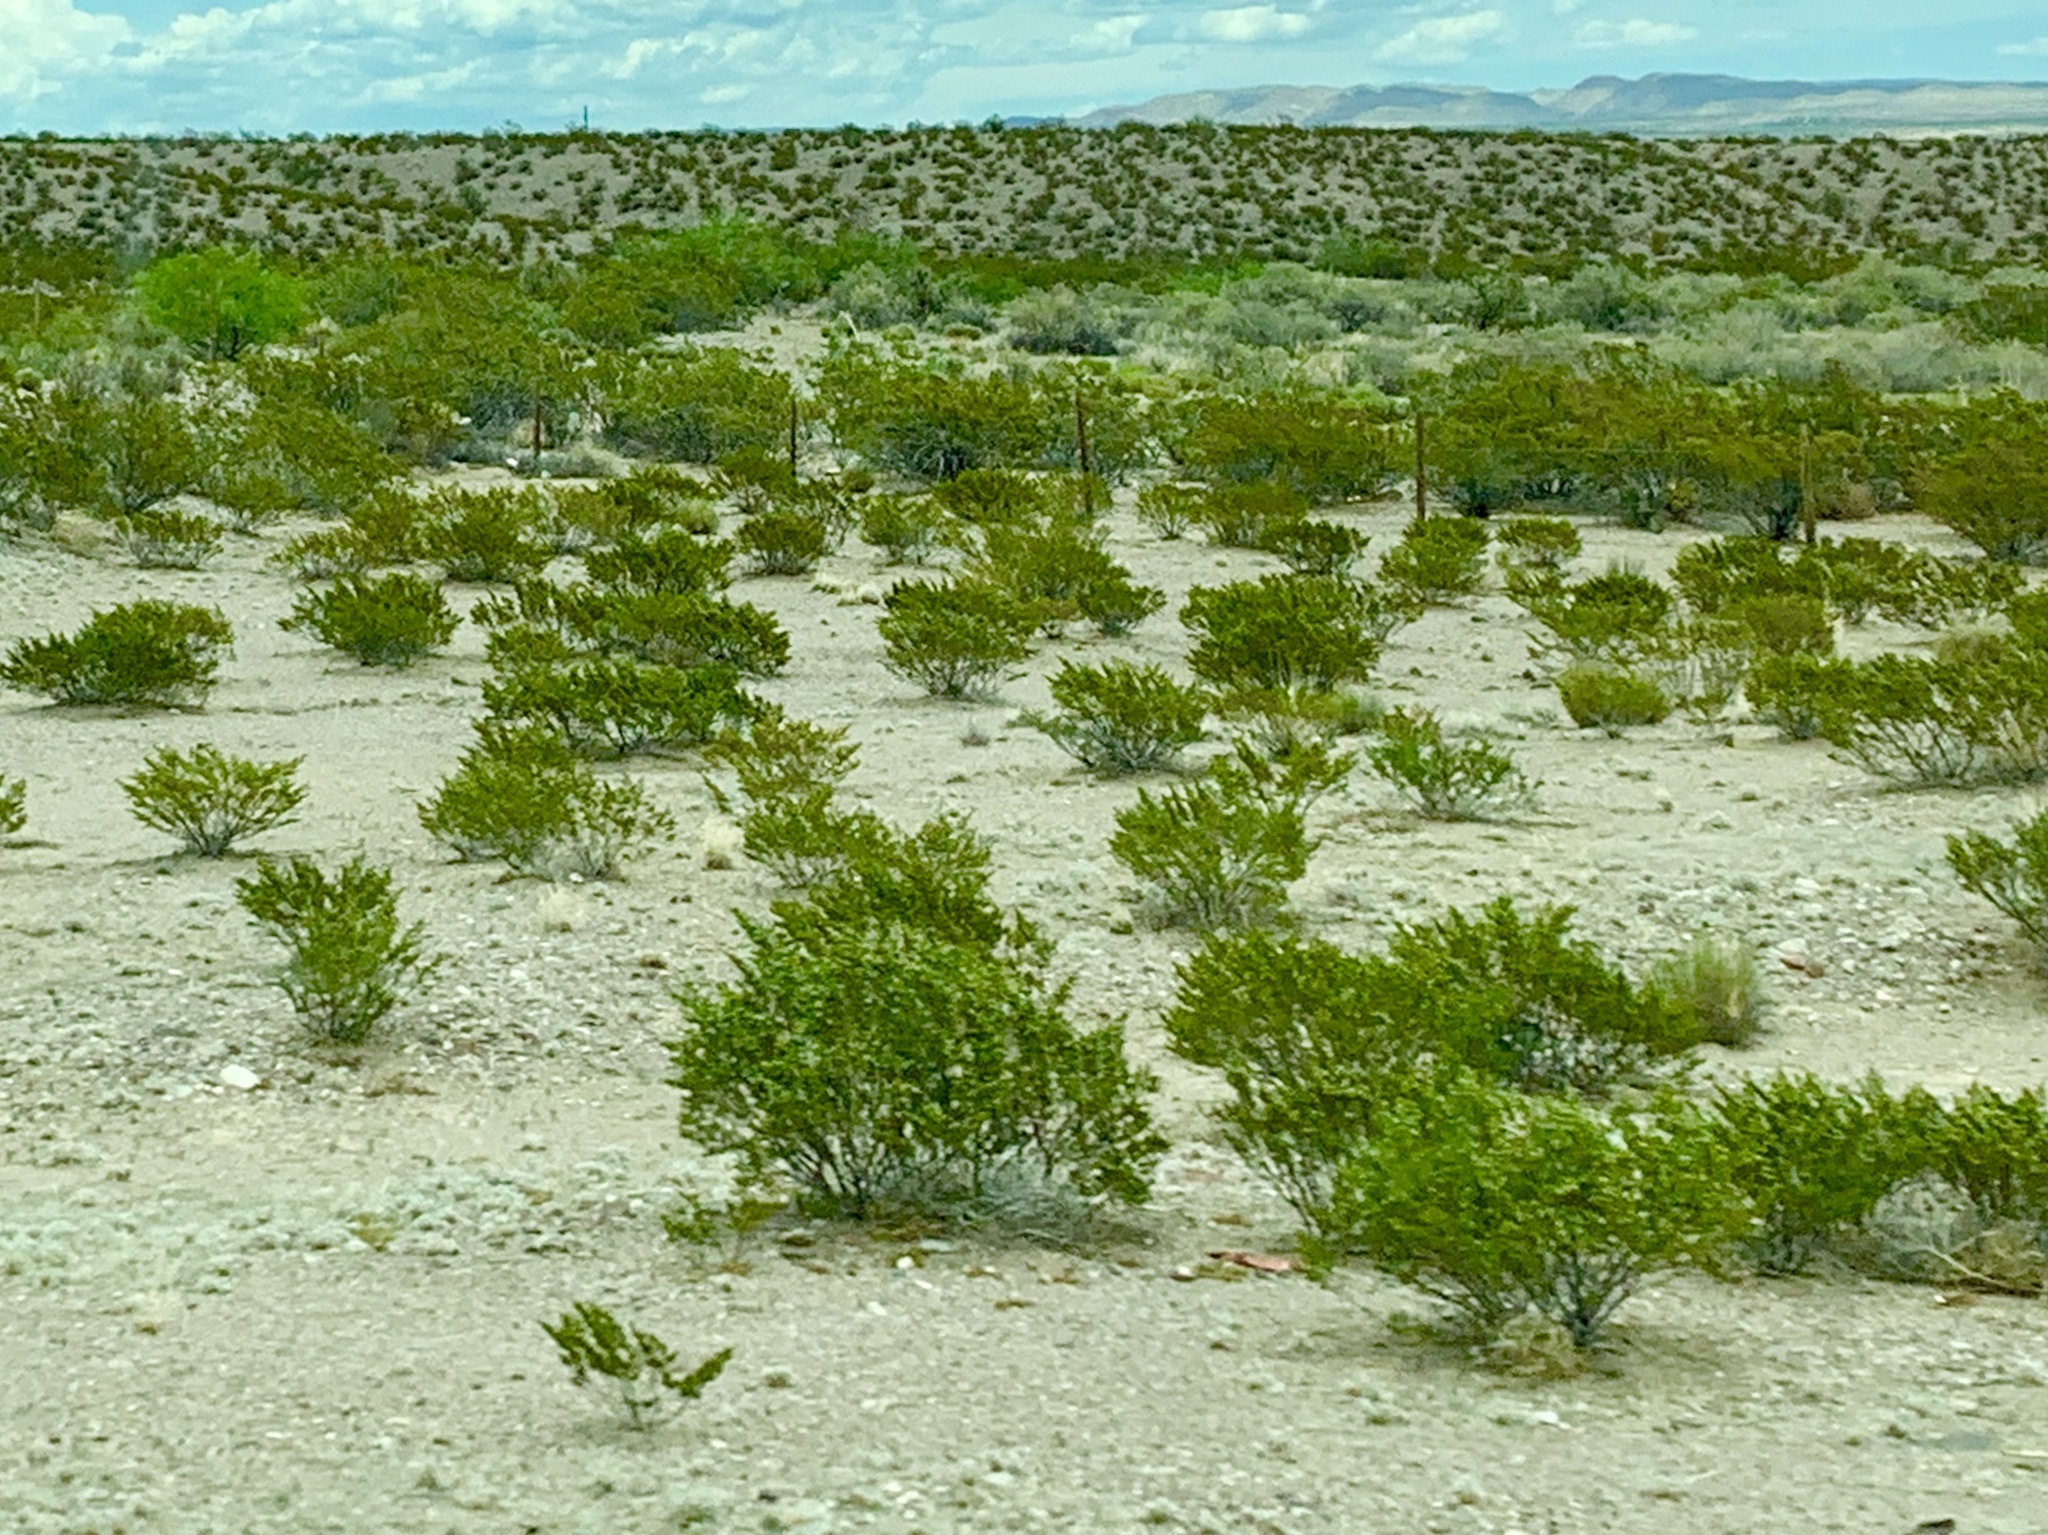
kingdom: Plantae
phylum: Tracheophyta
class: Magnoliopsida
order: Zygophyllales
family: Zygophyllaceae
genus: Larrea
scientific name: Larrea tridentata
